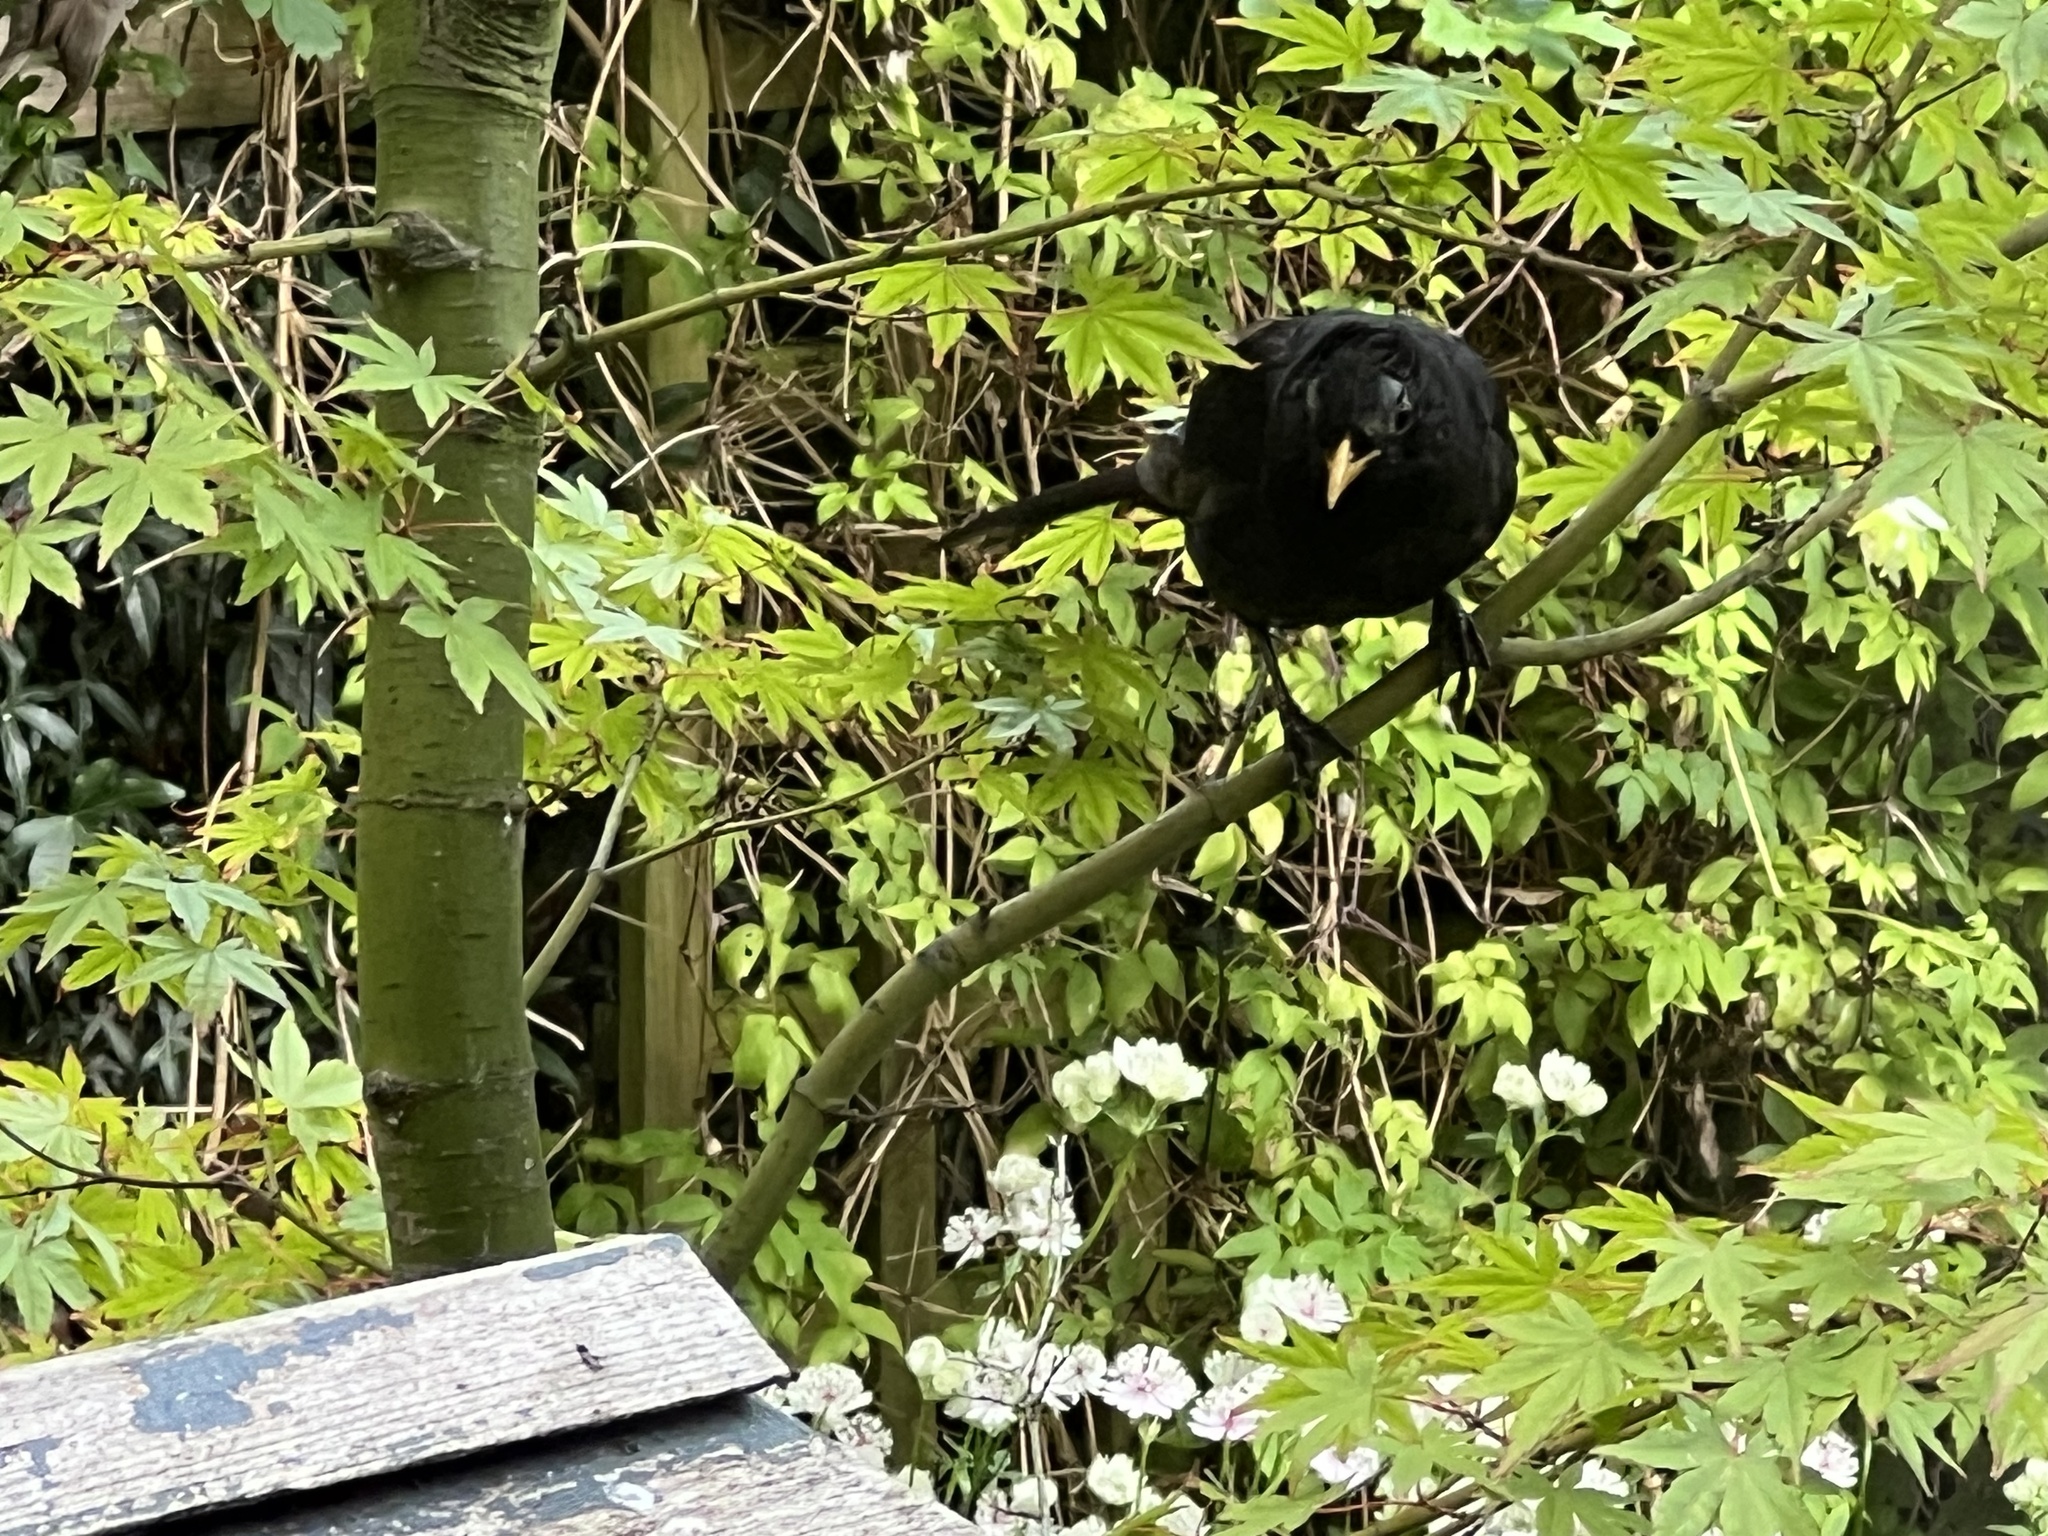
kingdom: Animalia
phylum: Chordata
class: Aves
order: Passeriformes
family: Turdidae
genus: Turdus
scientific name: Turdus merula
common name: Common blackbird
